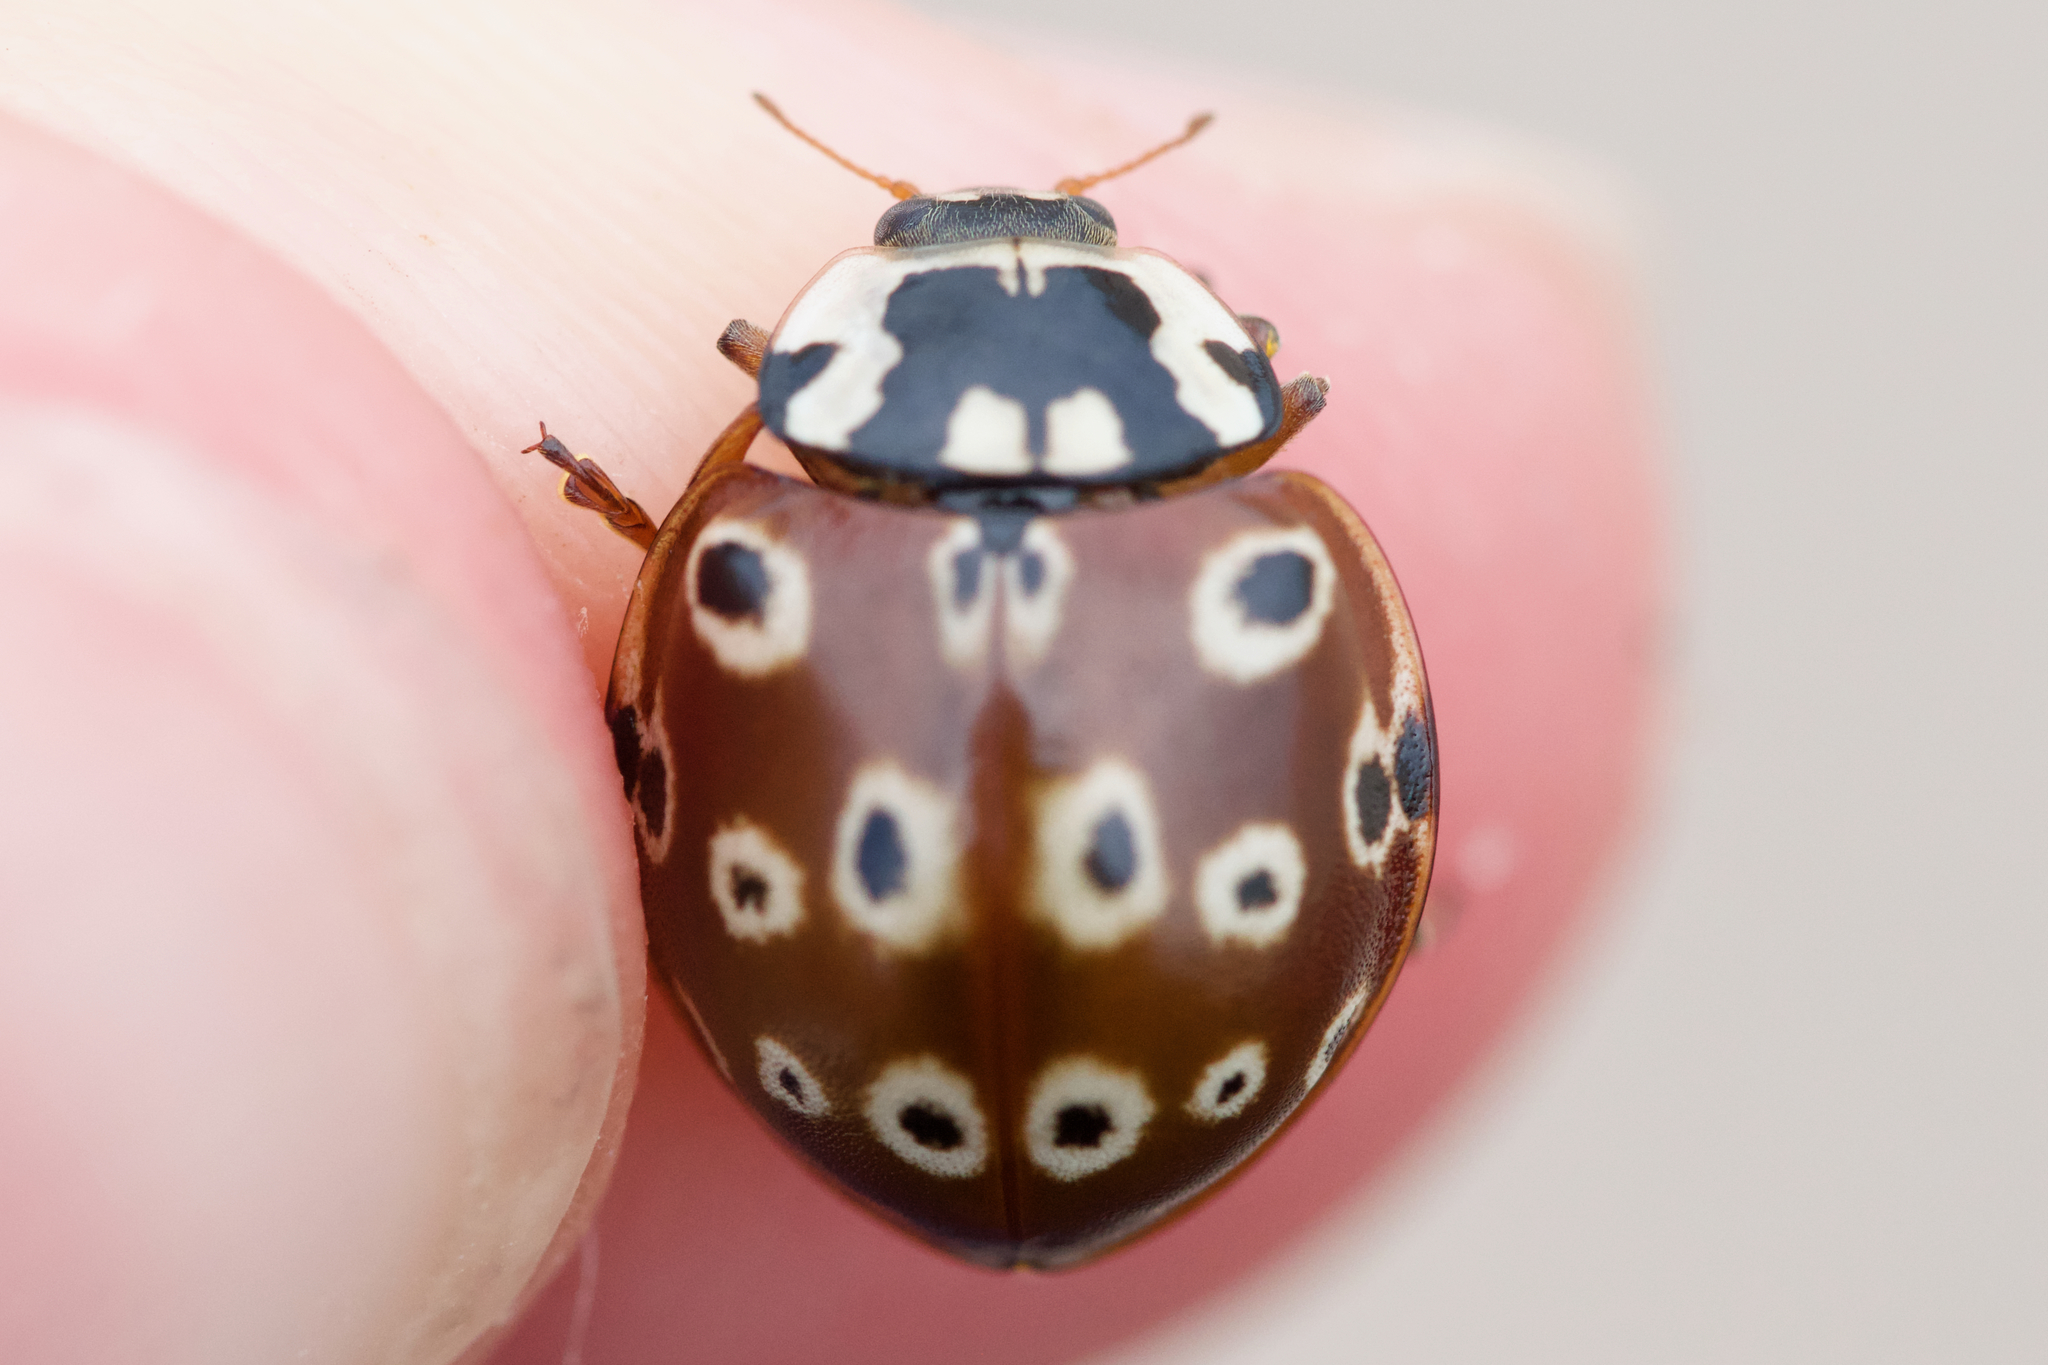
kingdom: Animalia
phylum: Arthropoda
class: Insecta
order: Coleoptera
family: Coccinellidae
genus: Anatis
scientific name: Anatis mali
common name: Eye-spotted lady beetle
